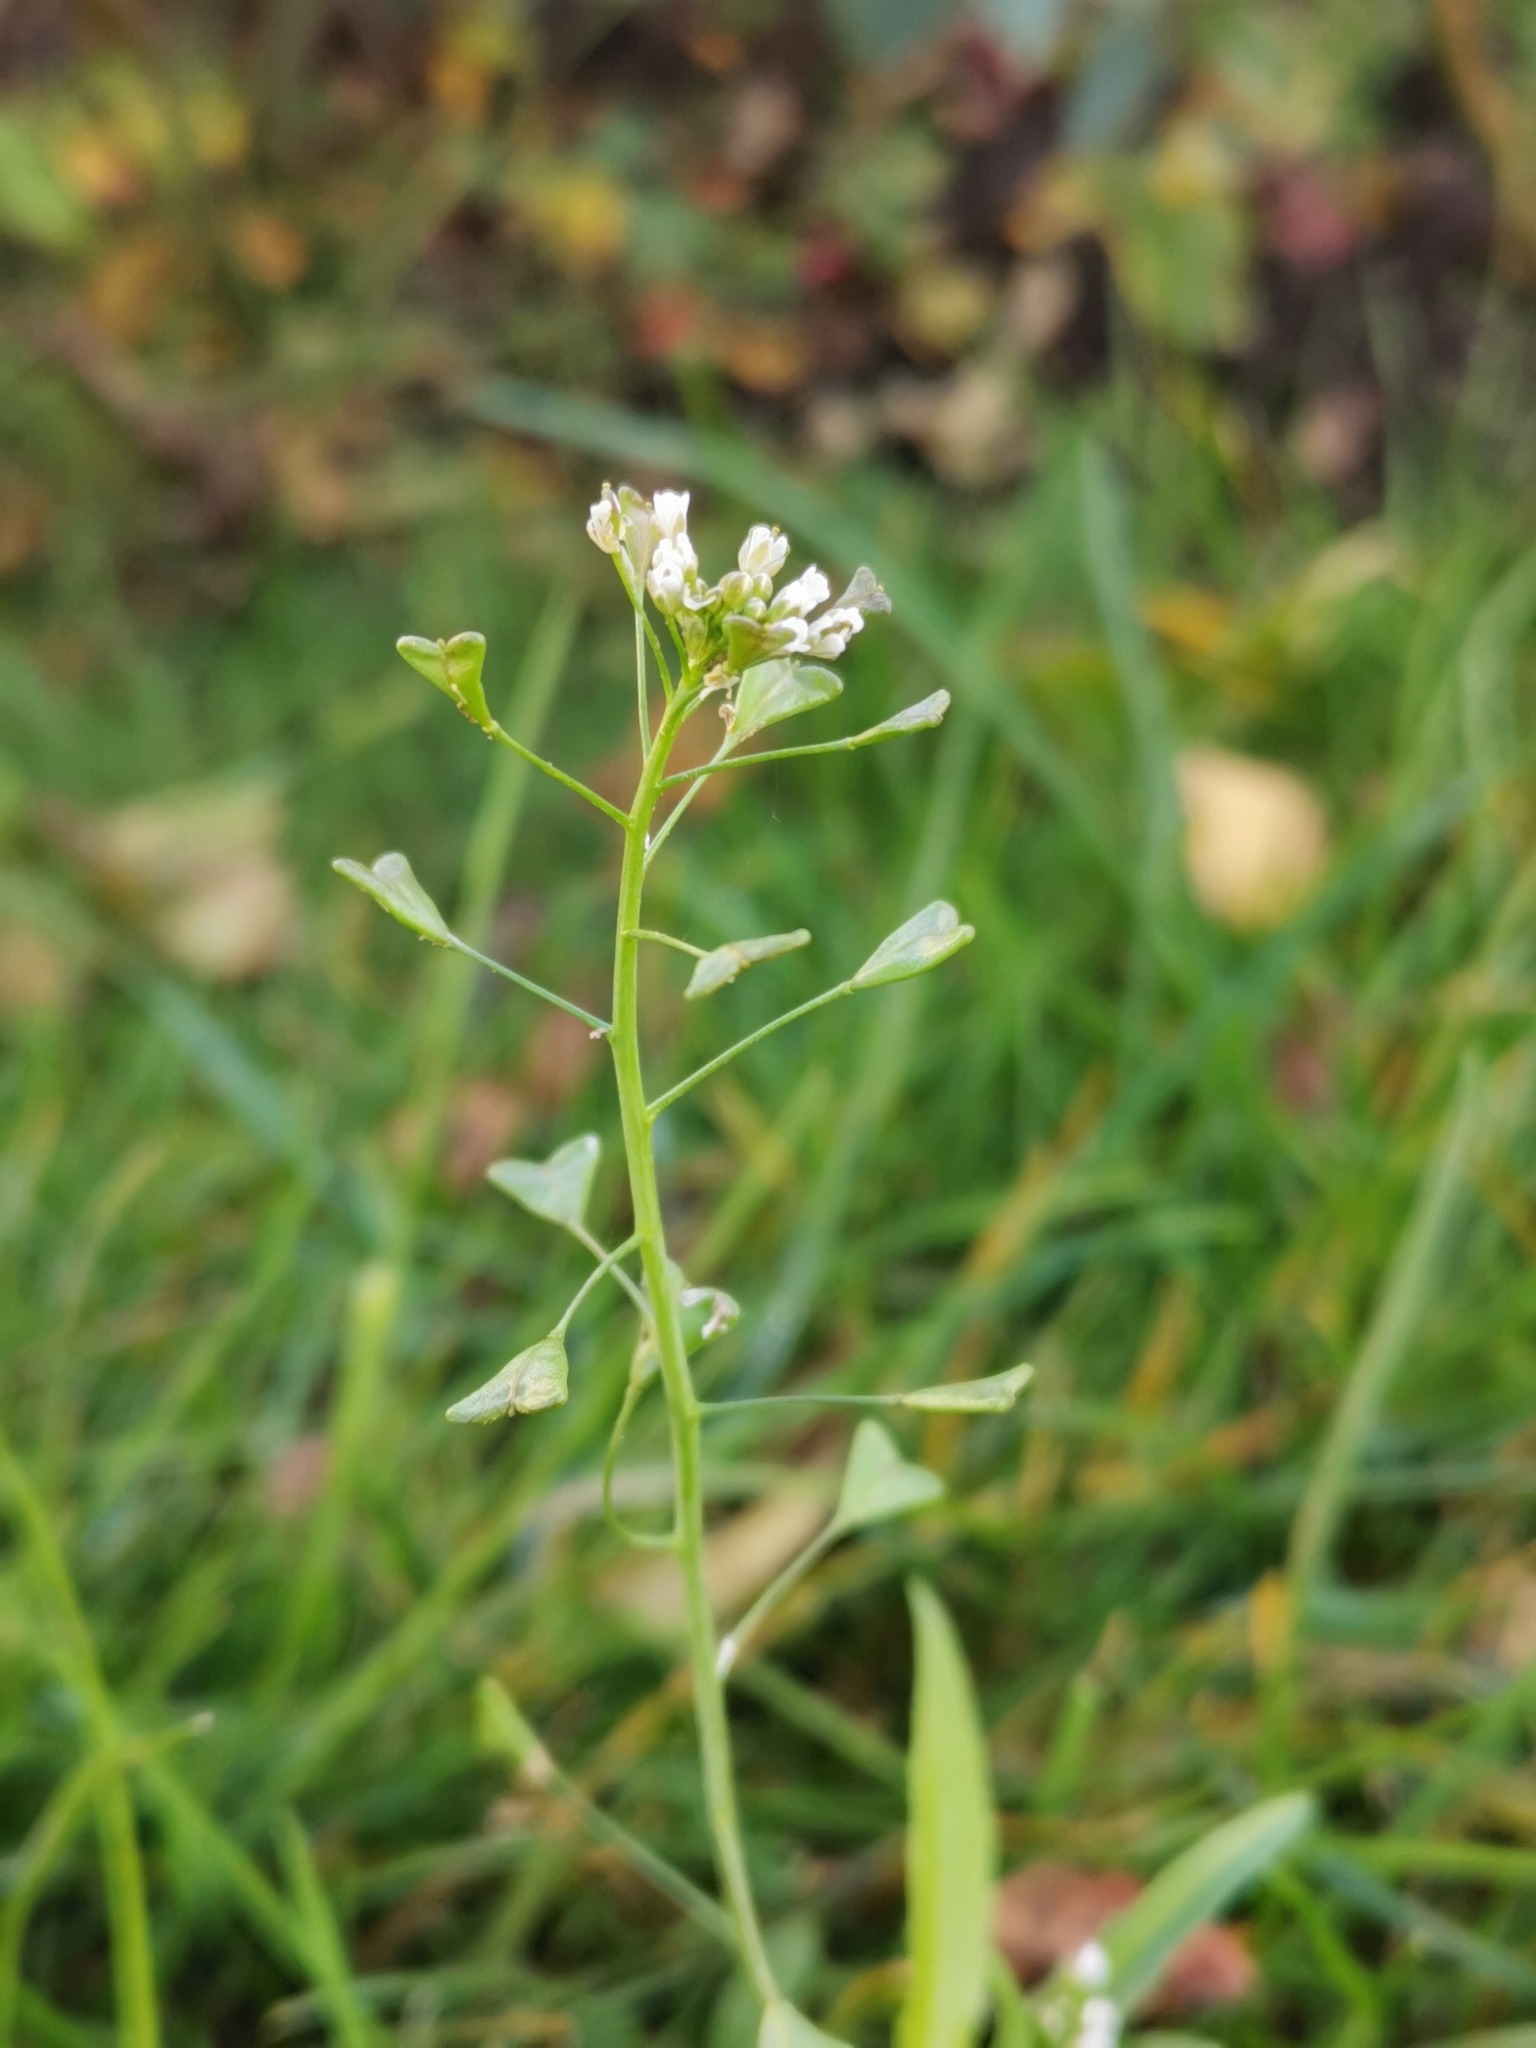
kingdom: Plantae
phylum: Tracheophyta
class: Magnoliopsida
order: Brassicales
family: Brassicaceae
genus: Capsella
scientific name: Capsella bursa-pastoris
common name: Shepherd's purse
